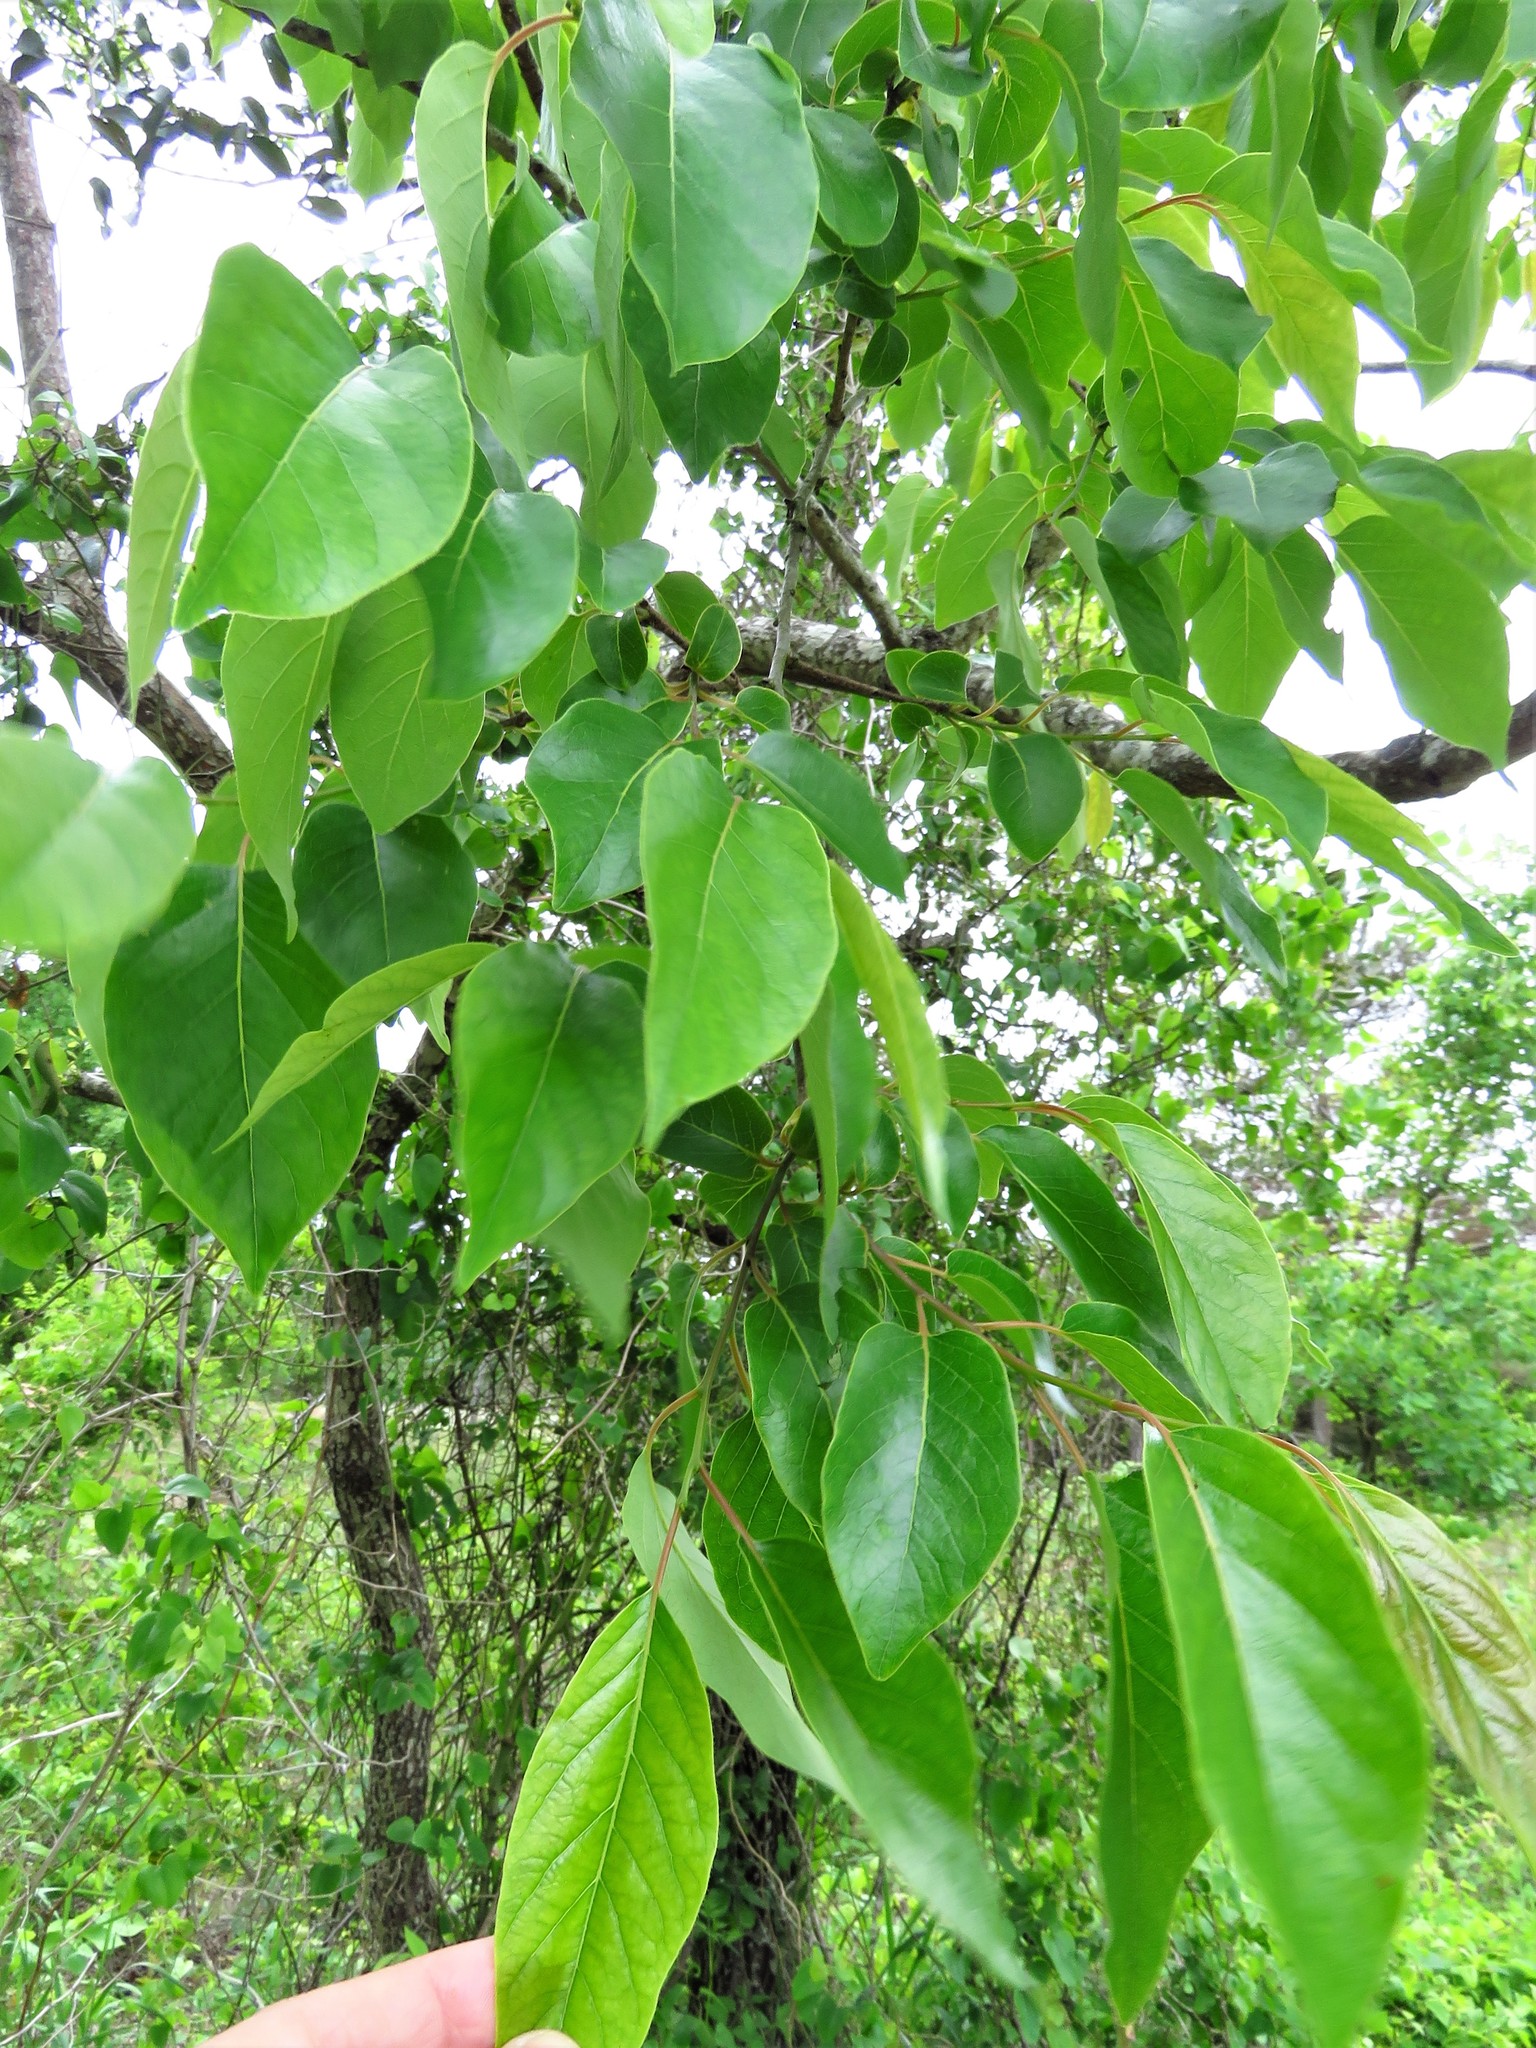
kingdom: Plantae
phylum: Tracheophyta
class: Magnoliopsida
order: Ericales
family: Ebenaceae
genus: Diospyros
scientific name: Diospyros virginiana
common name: Persimmon
